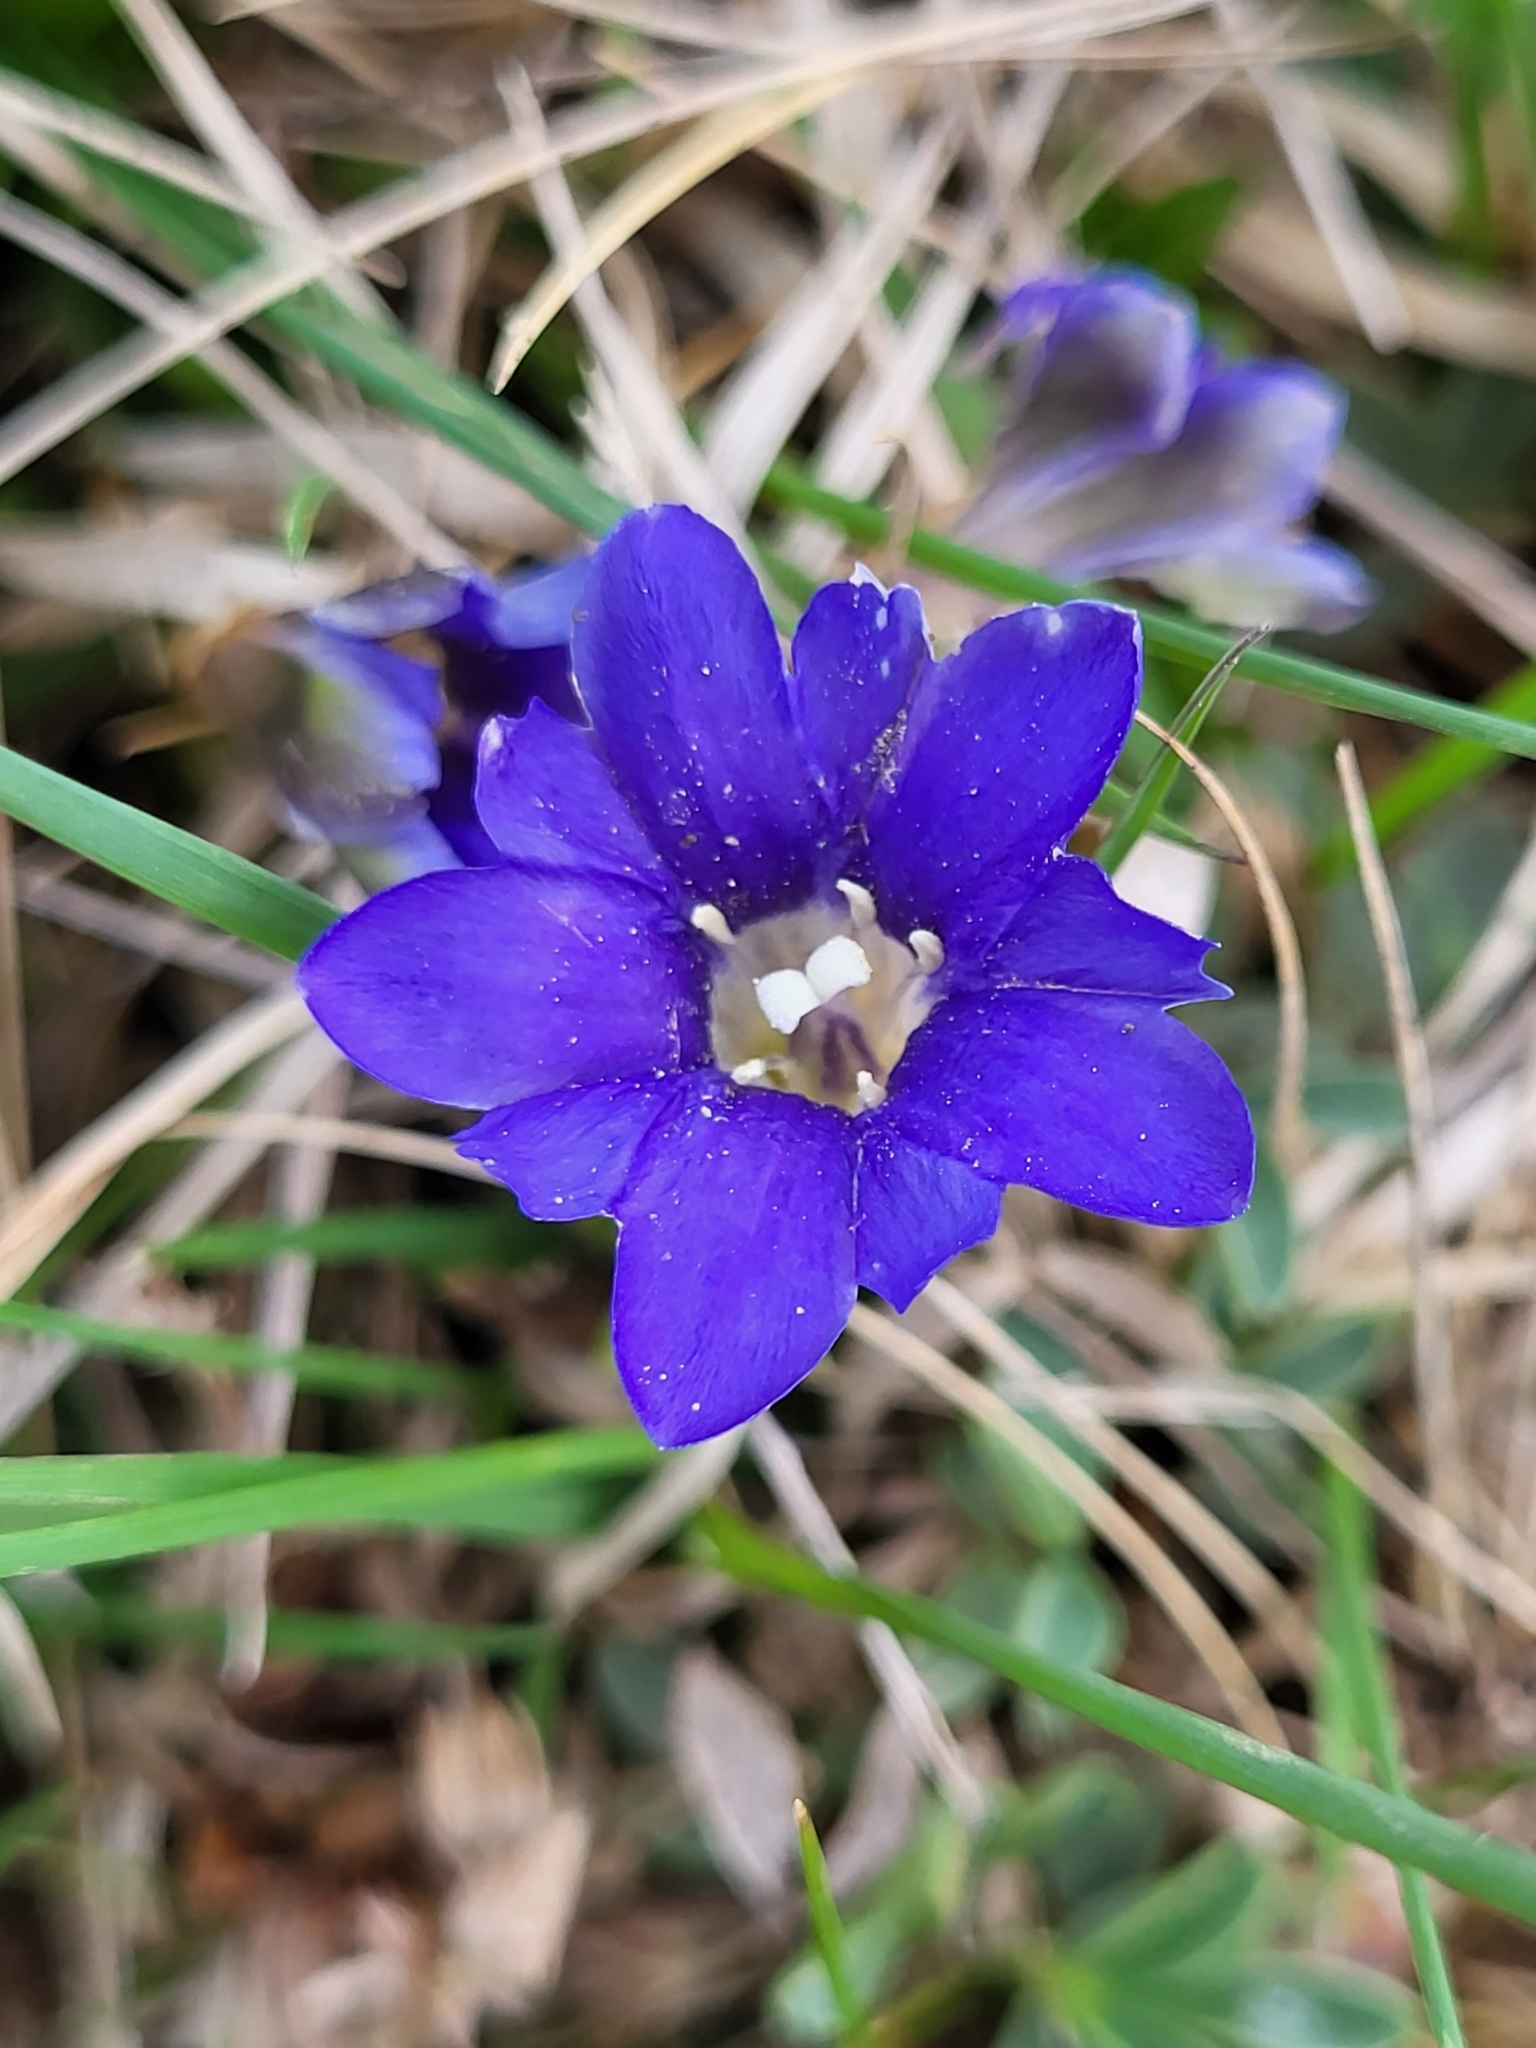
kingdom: Plantae
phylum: Tracheophyta
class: Magnoliopsida
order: Gentianales
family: Gentianaceae
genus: Gentiana
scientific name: Gentiana dshimilensis
